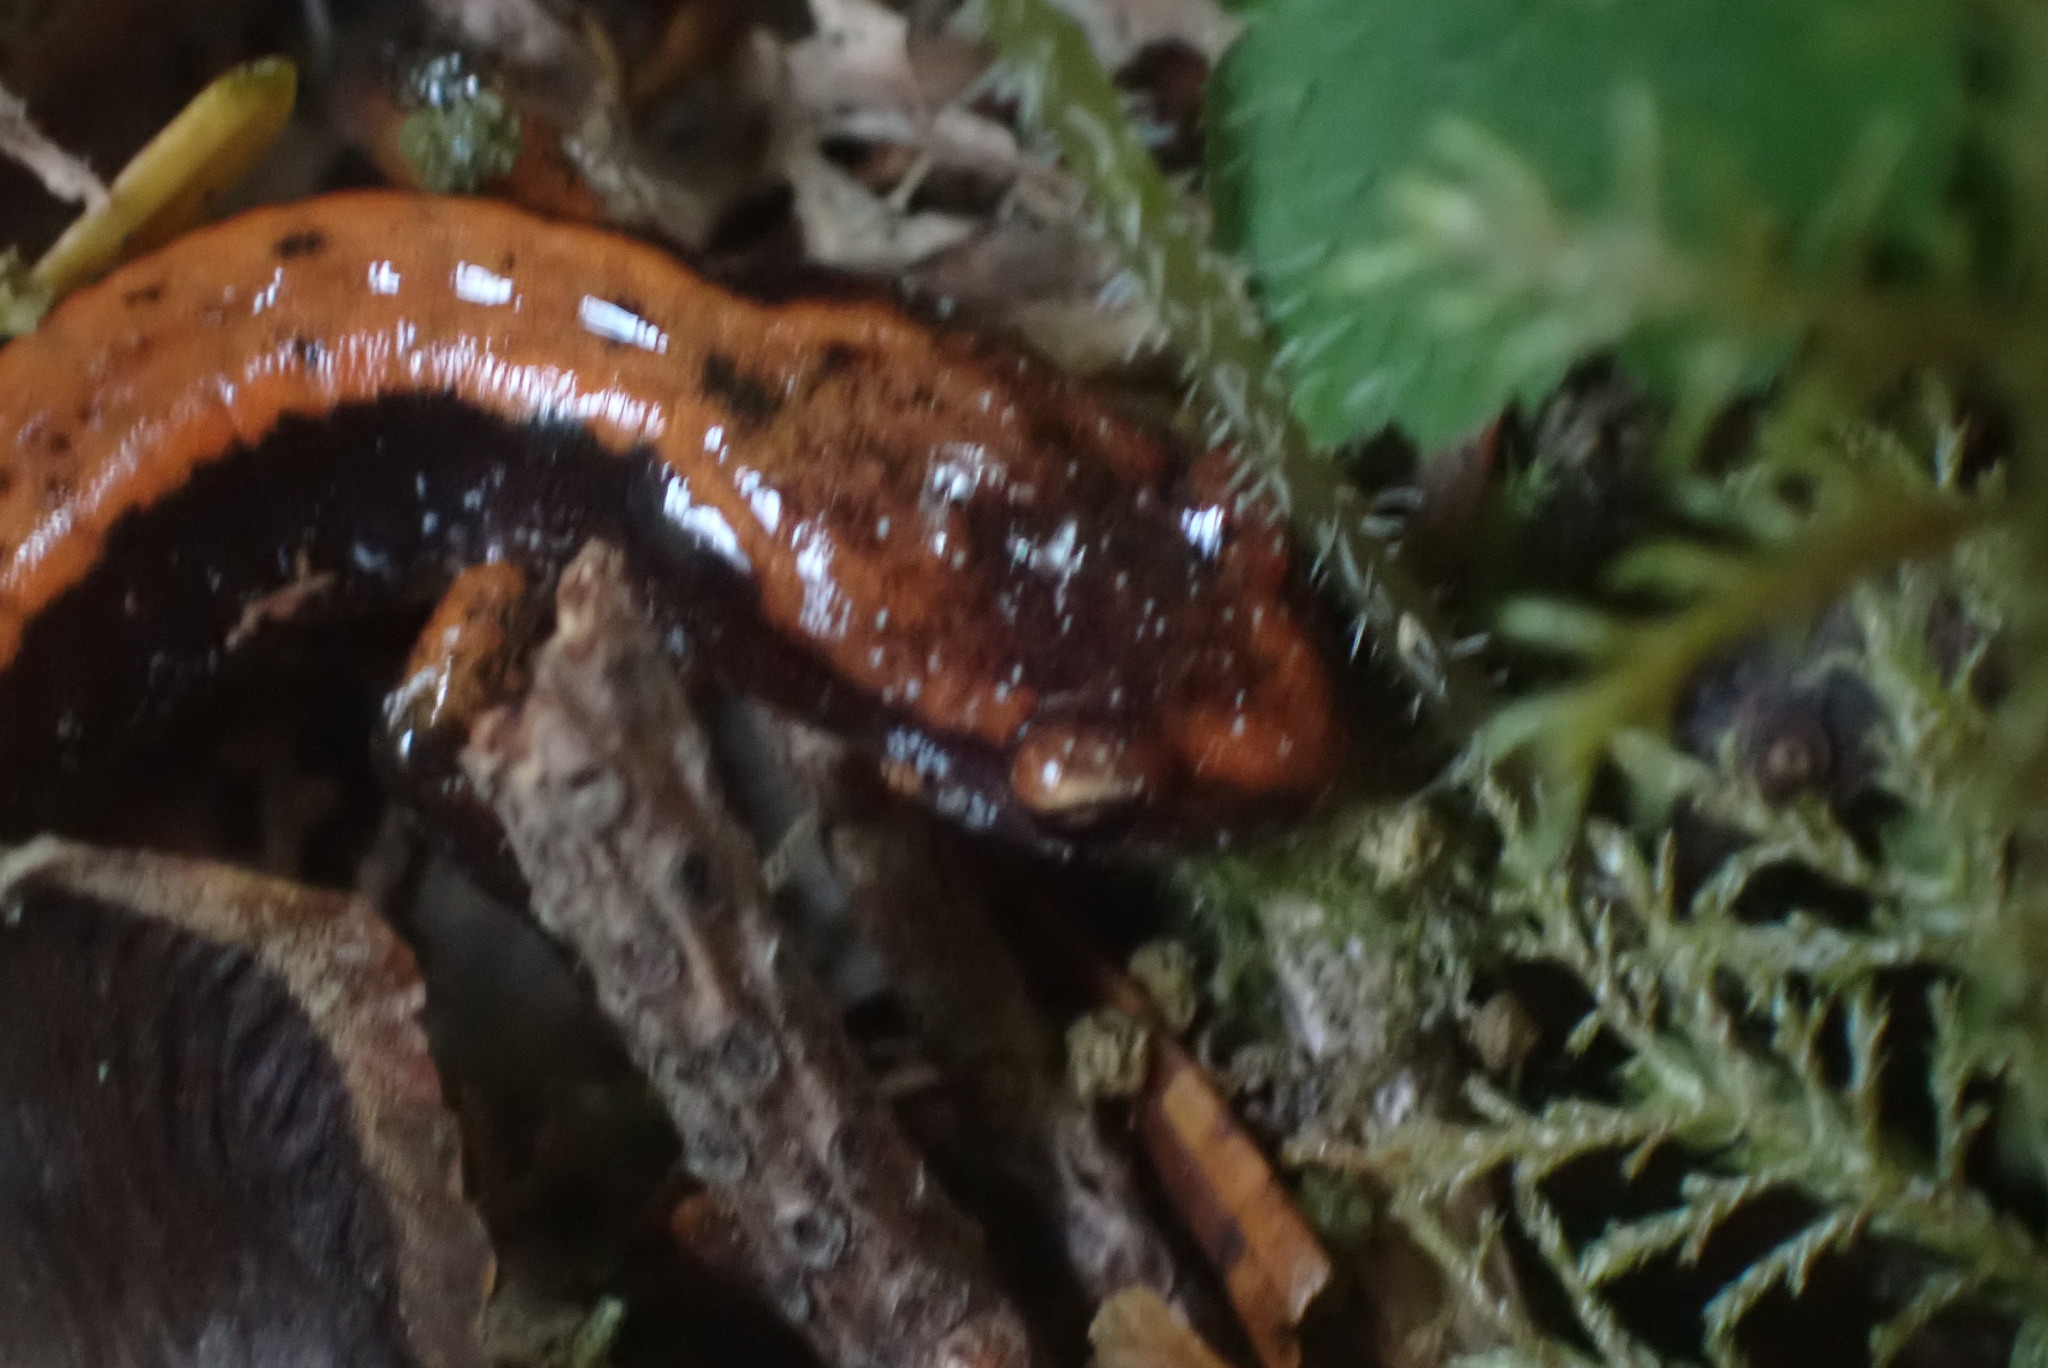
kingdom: Animalia
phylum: Chordata
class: Amphibia
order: Caudata
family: Plethodontidae
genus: Plethodon
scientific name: Plethodon vehiculum
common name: Western red-backed salamander
